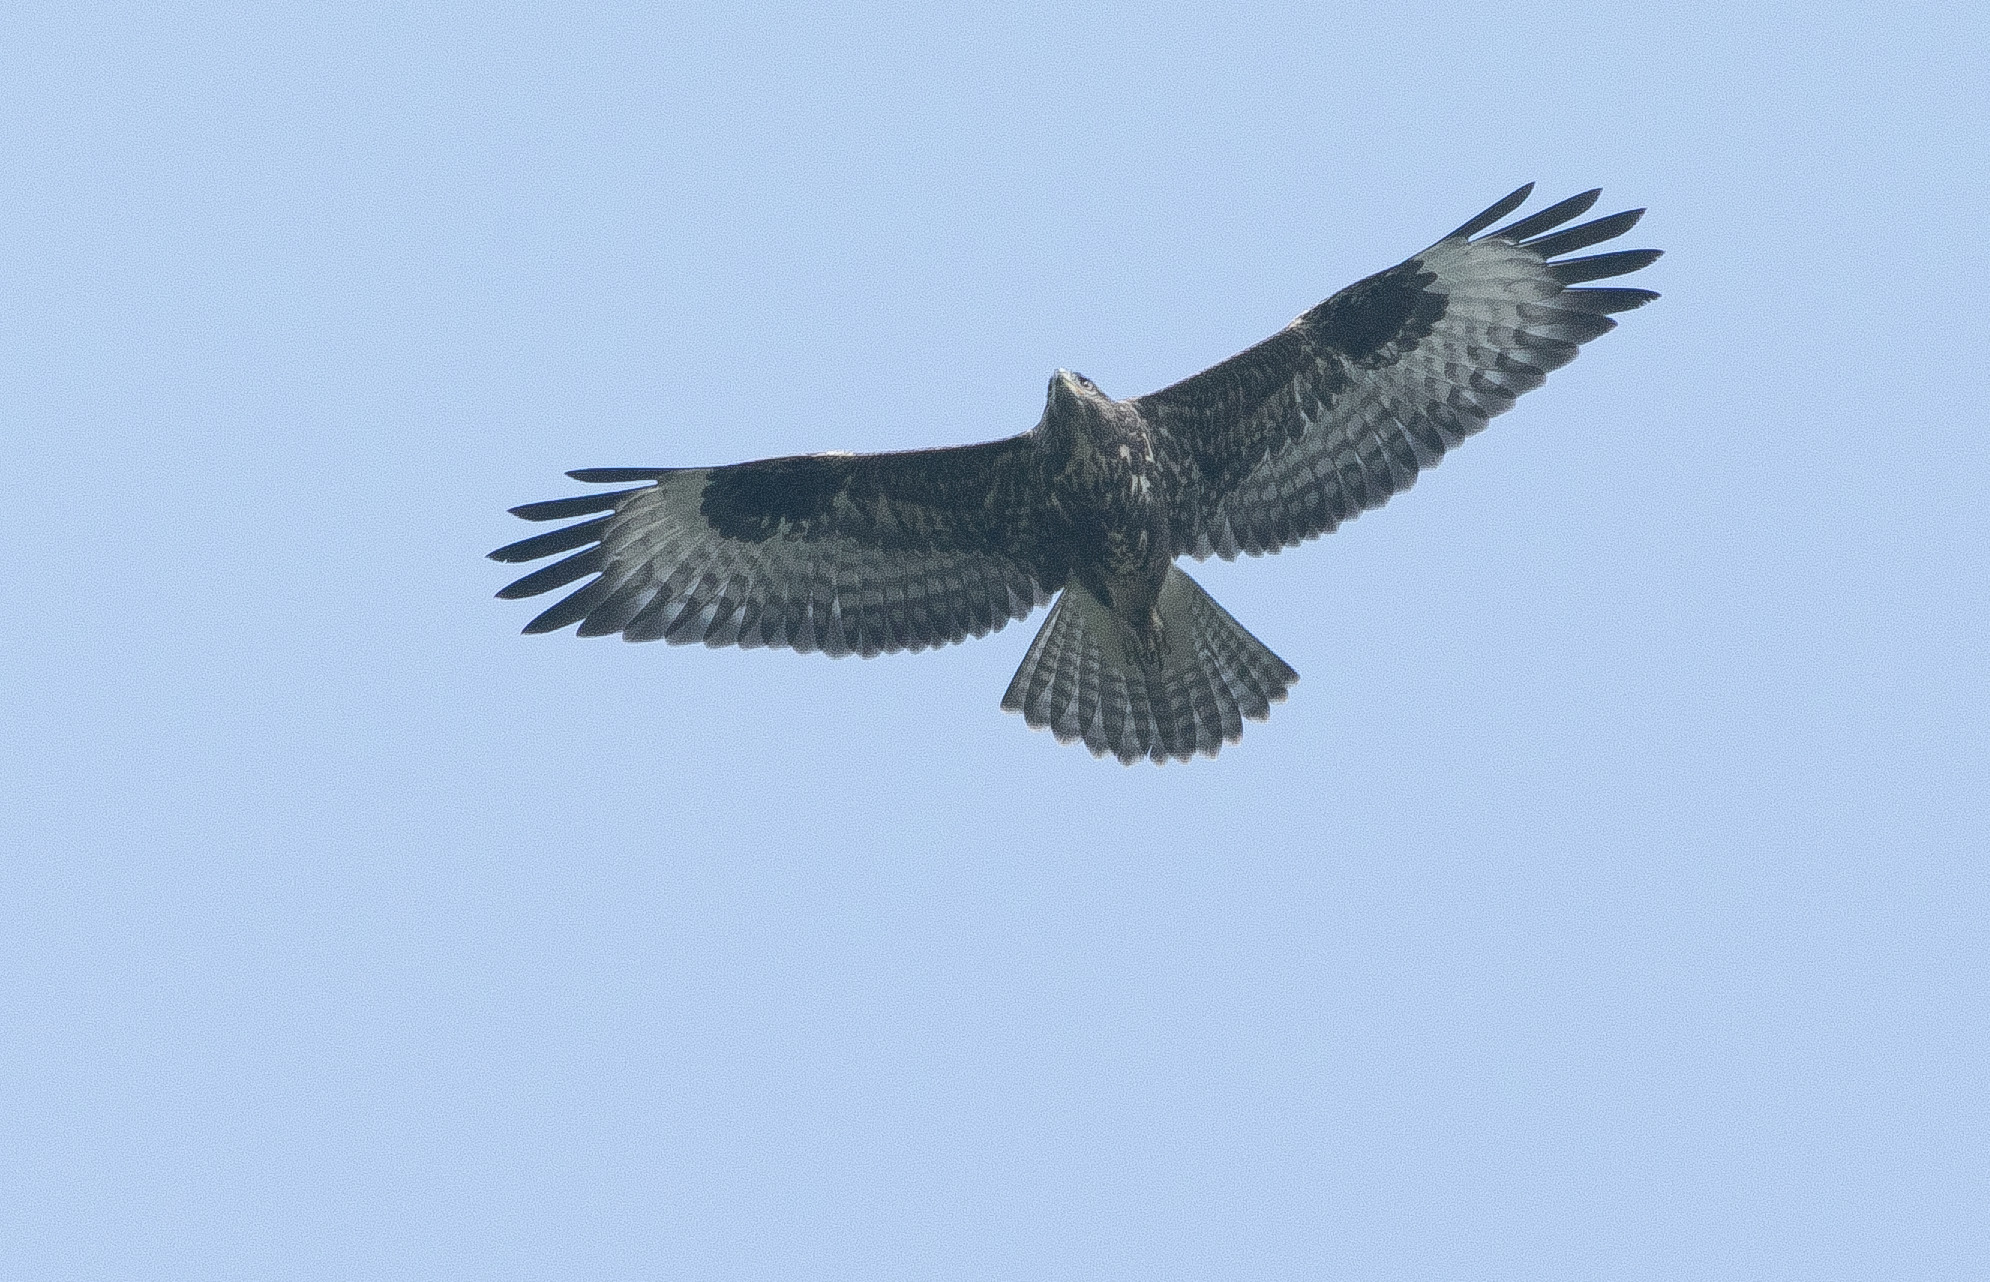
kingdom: Animalia
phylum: Chordata
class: Aves
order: Accipitriformes
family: Accipitridae
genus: Buteo
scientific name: Buteo buteo
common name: Common buzzard
